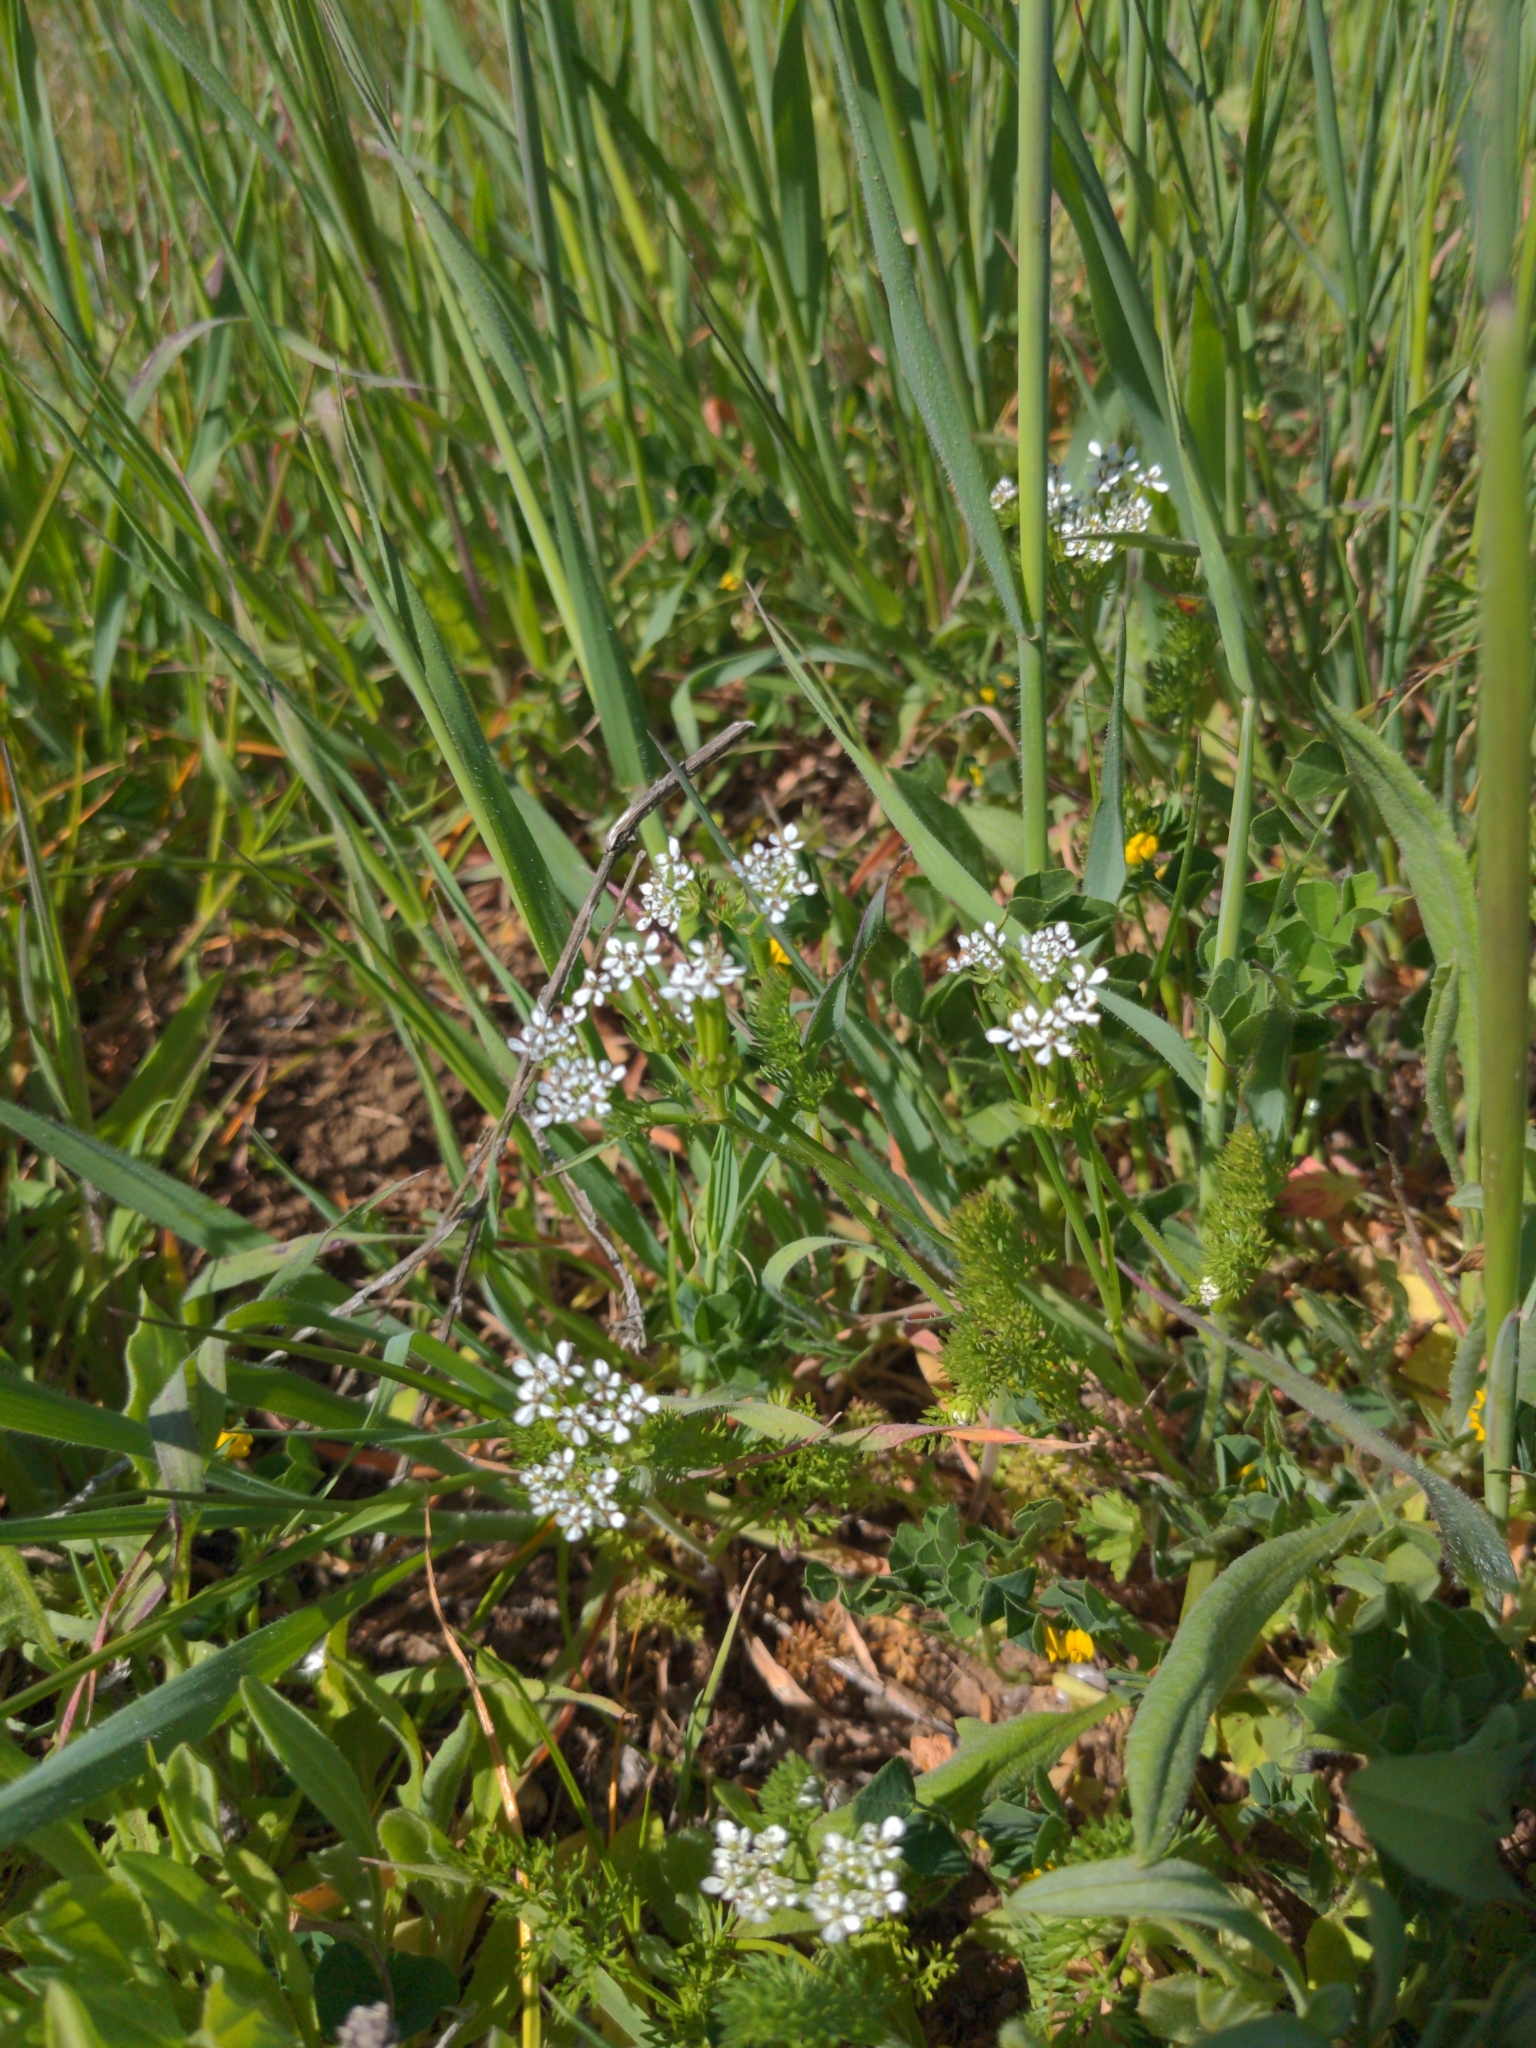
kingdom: Plantae
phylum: Tracheophyta
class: Magnoliopsida
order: Apiales
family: Apiaceae
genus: Scandix
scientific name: Scandix pecten-veneris
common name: Shepherd's-needle
